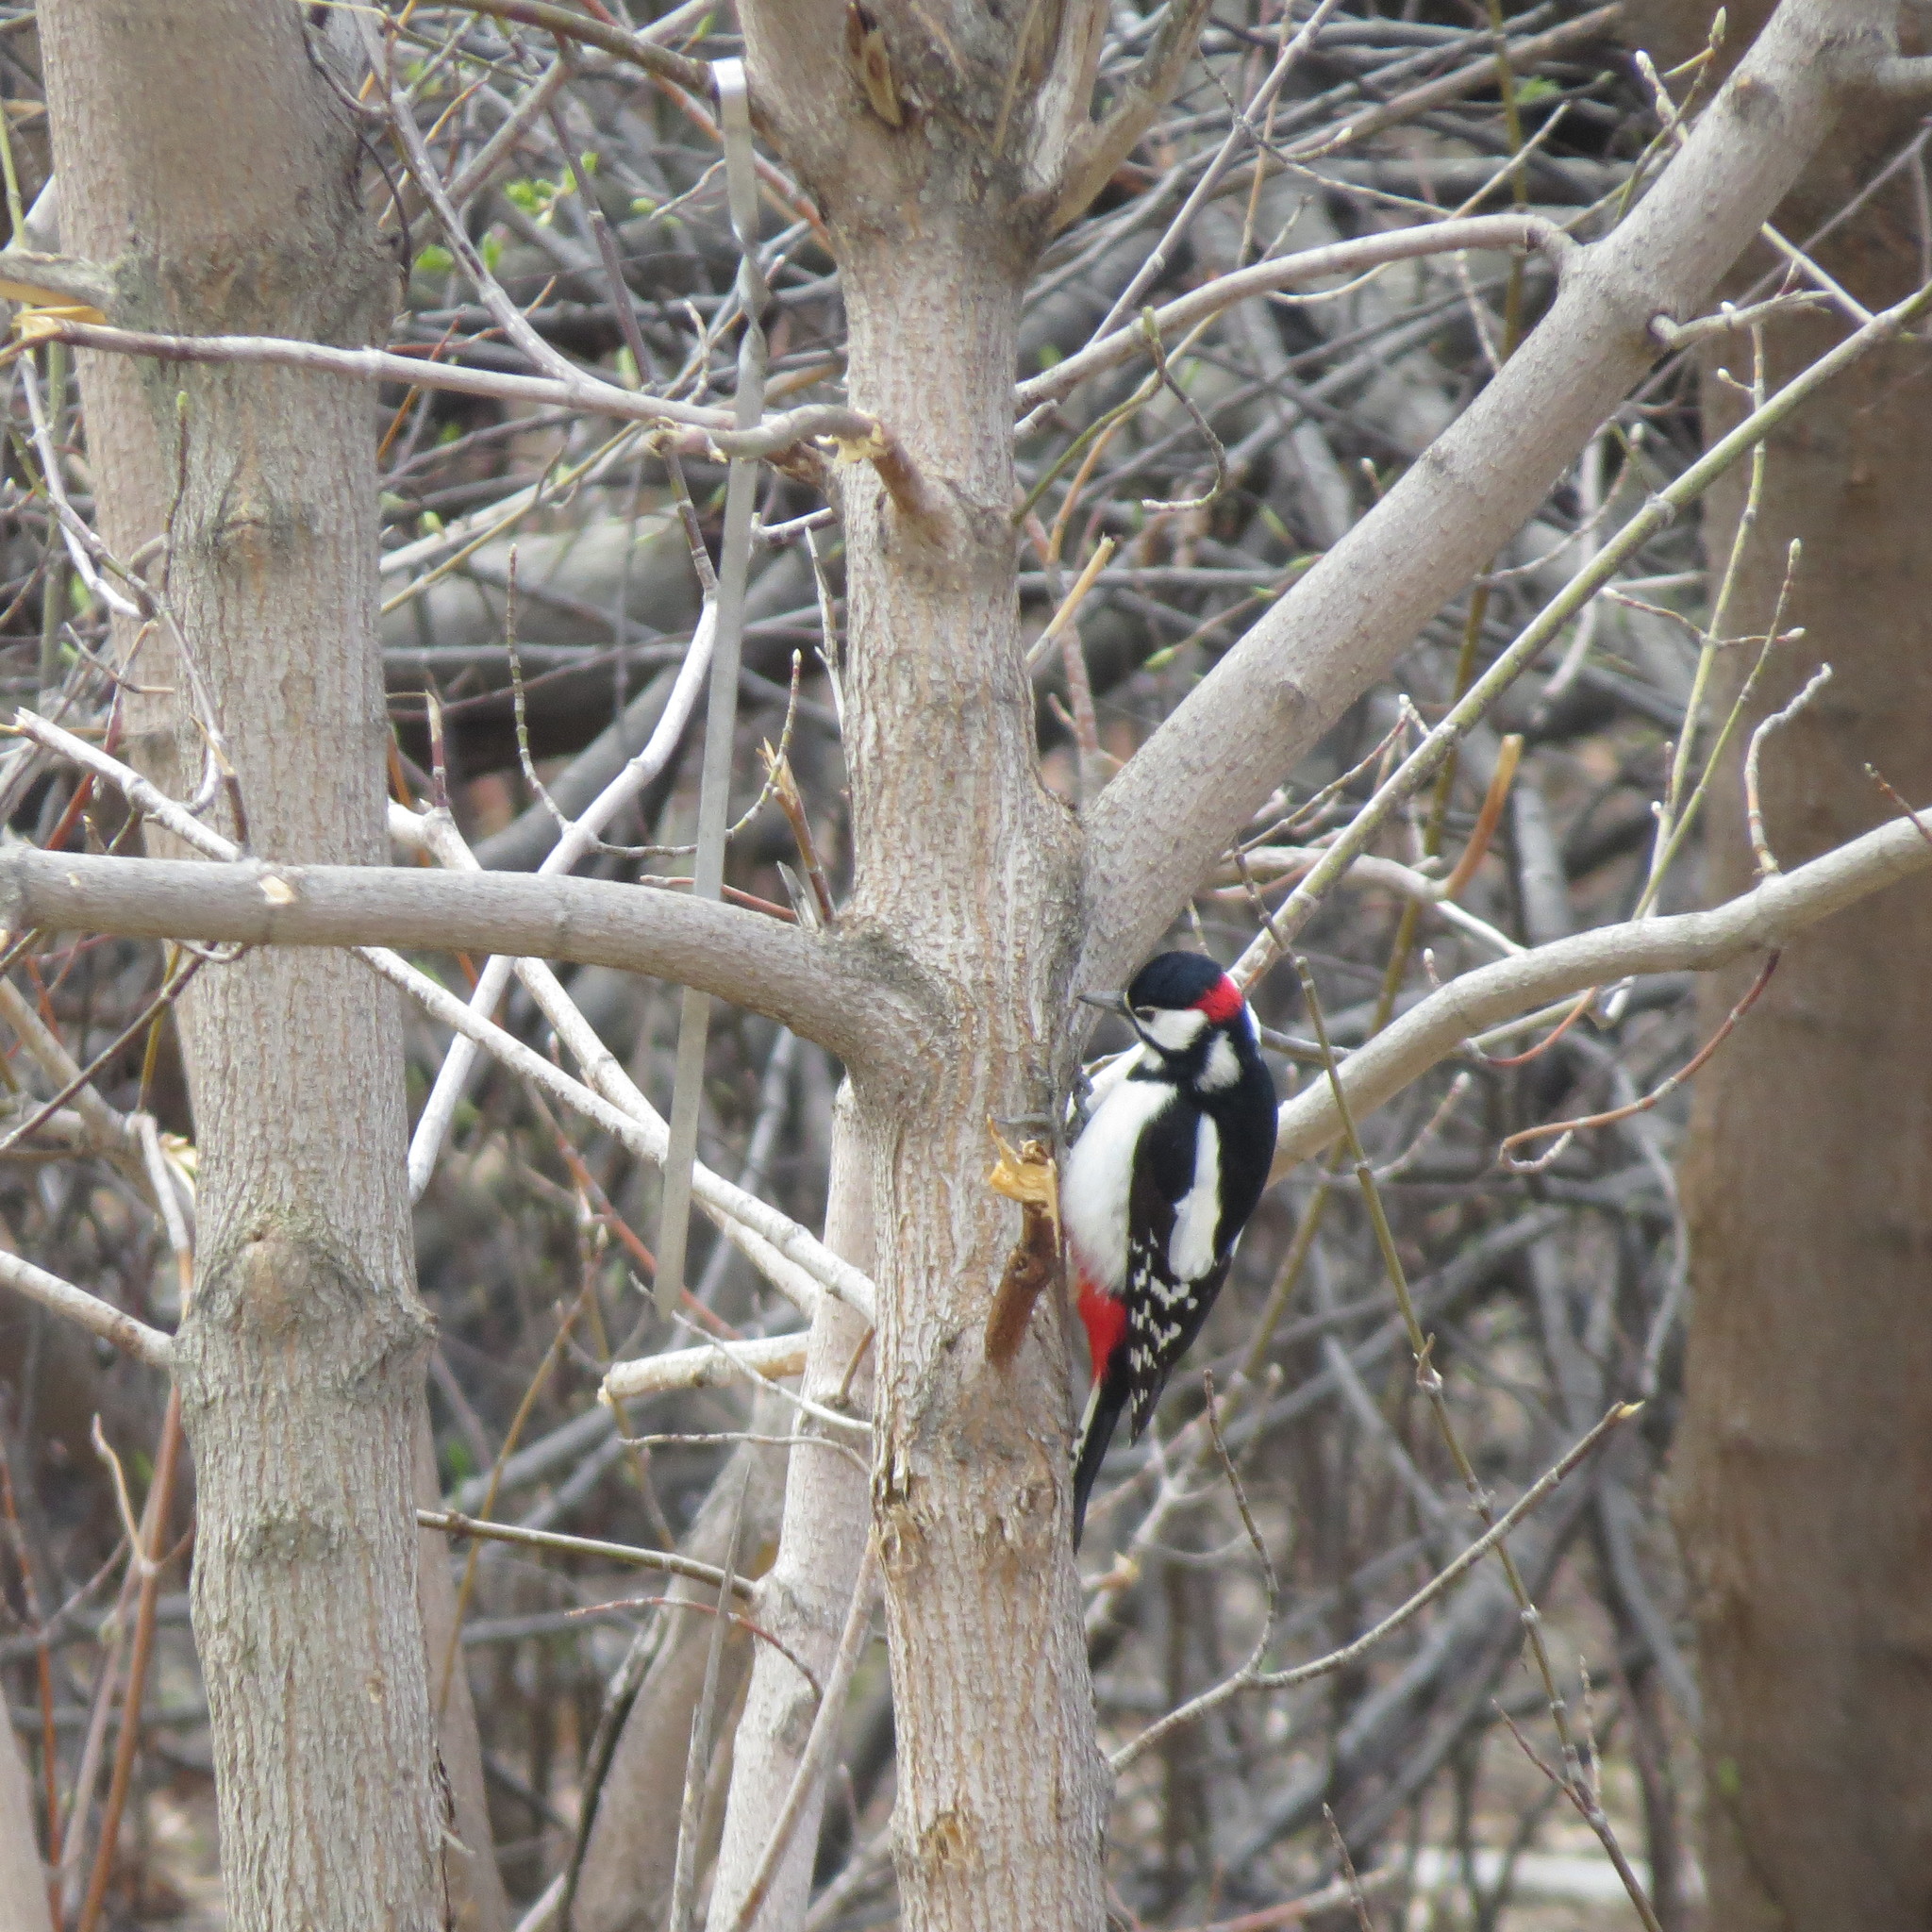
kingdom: Animalia
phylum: Chordata
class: Aves
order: Piciformes
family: Picidae
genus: Dendrocopos
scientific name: Dendrocopos major
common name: Great spotted woodpecker
